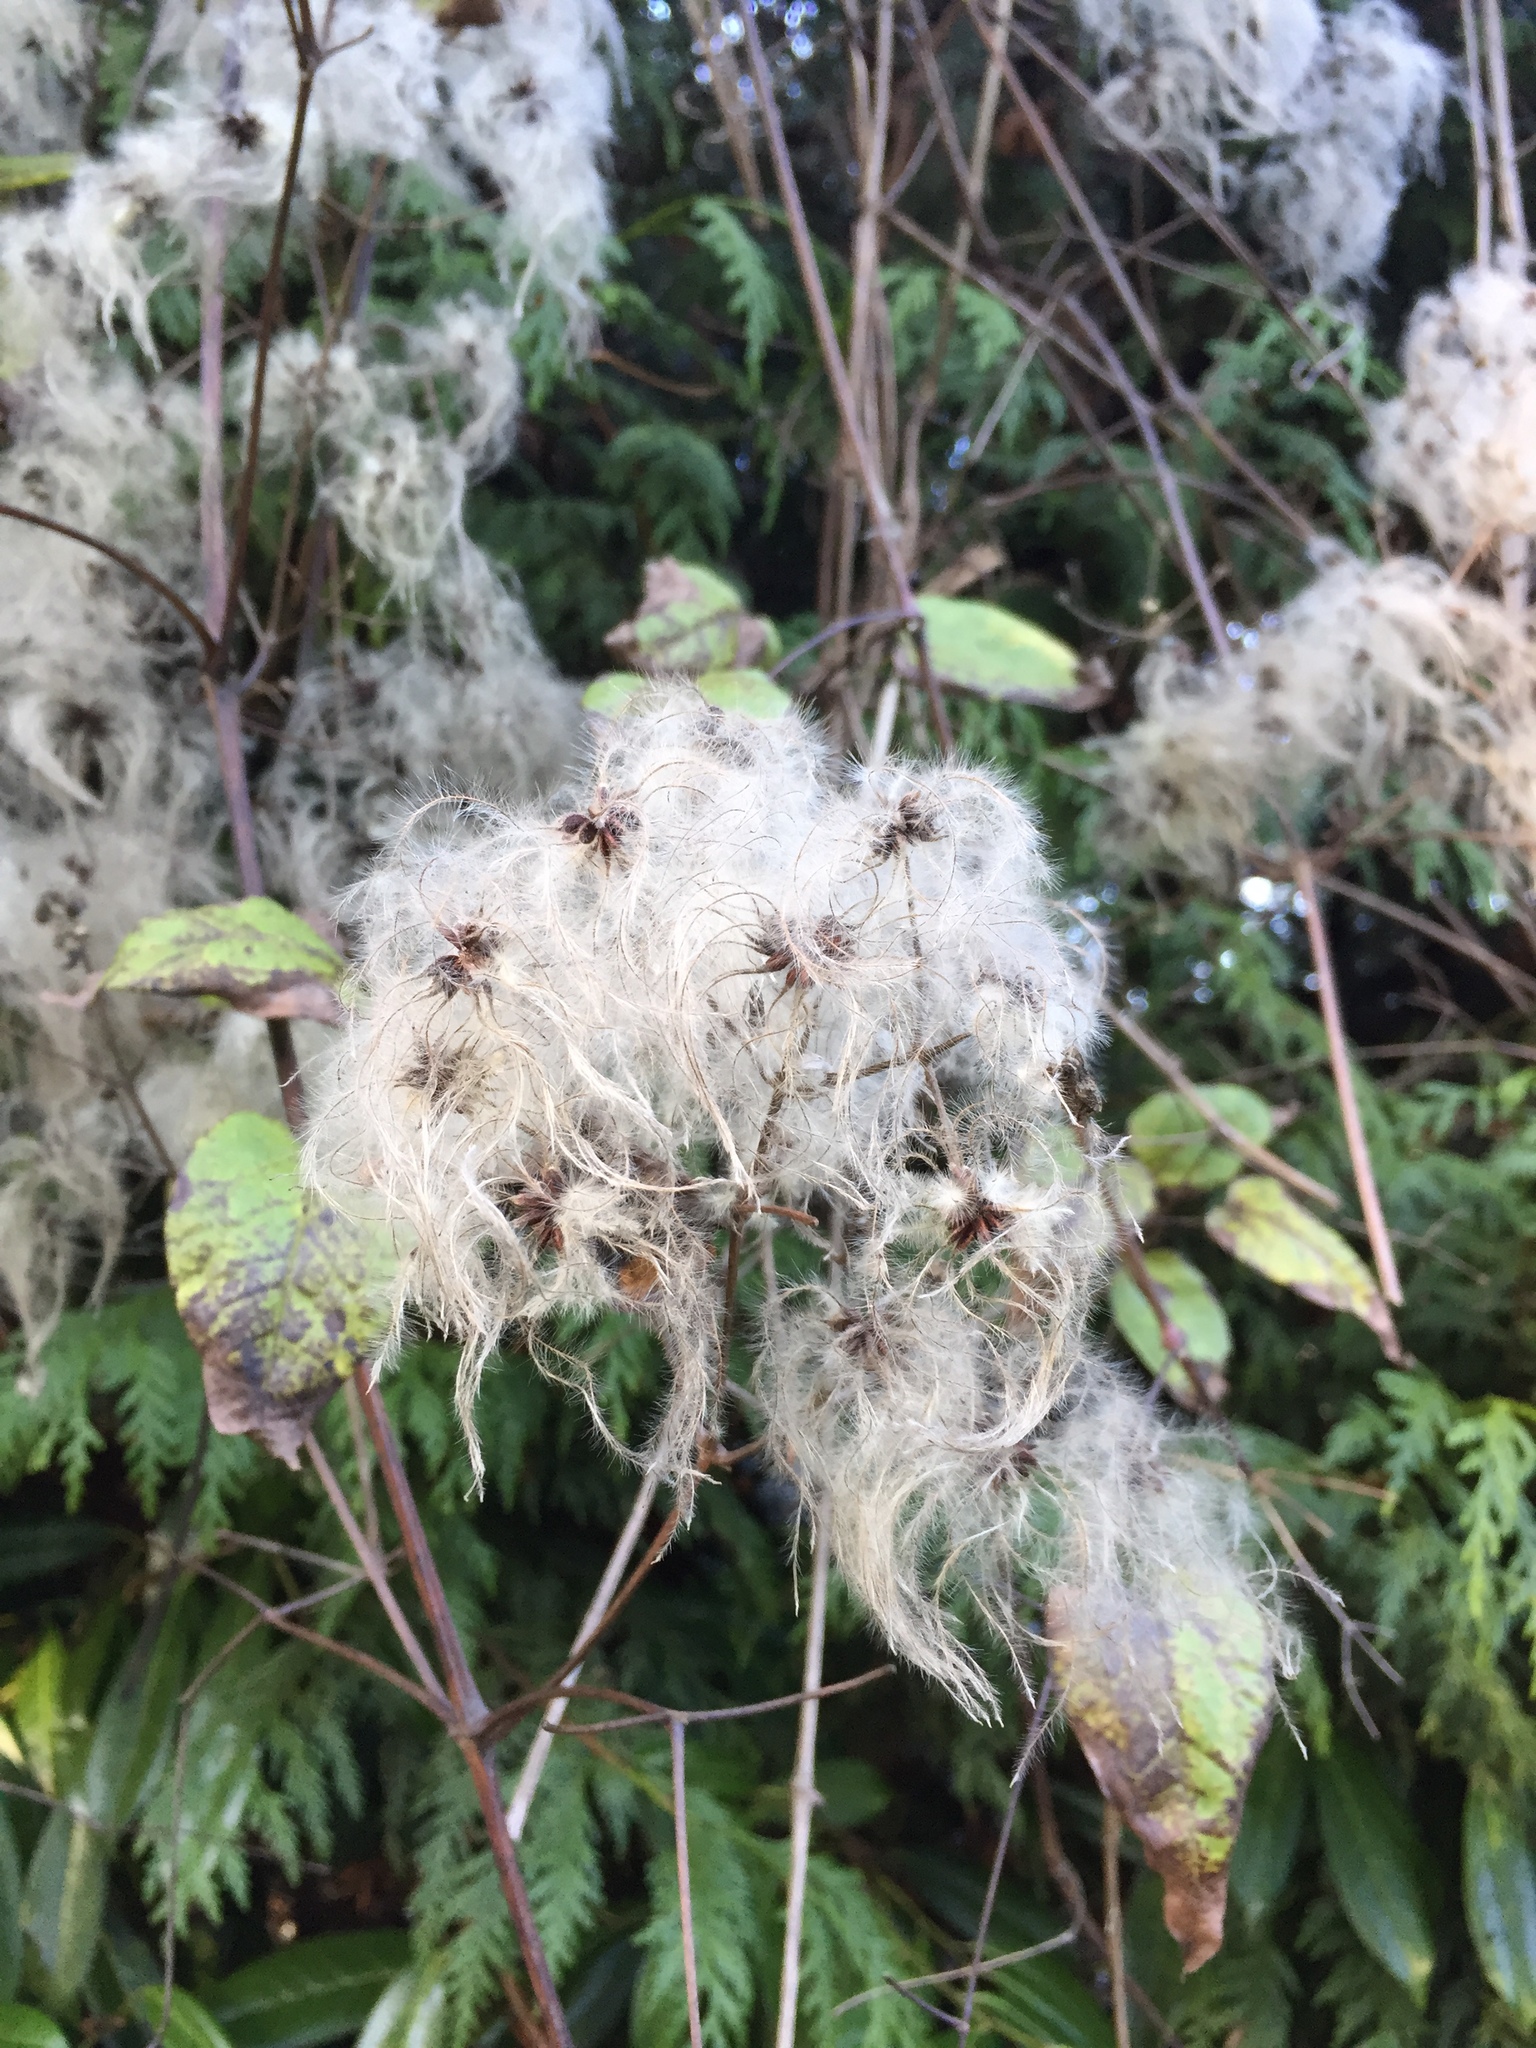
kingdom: Plantae
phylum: Tracheophyta
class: Magnoliopsida
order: Ranunculales
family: Ranunculaceae
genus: Clematis
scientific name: Clematis vitalba
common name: Evergreen clematis
